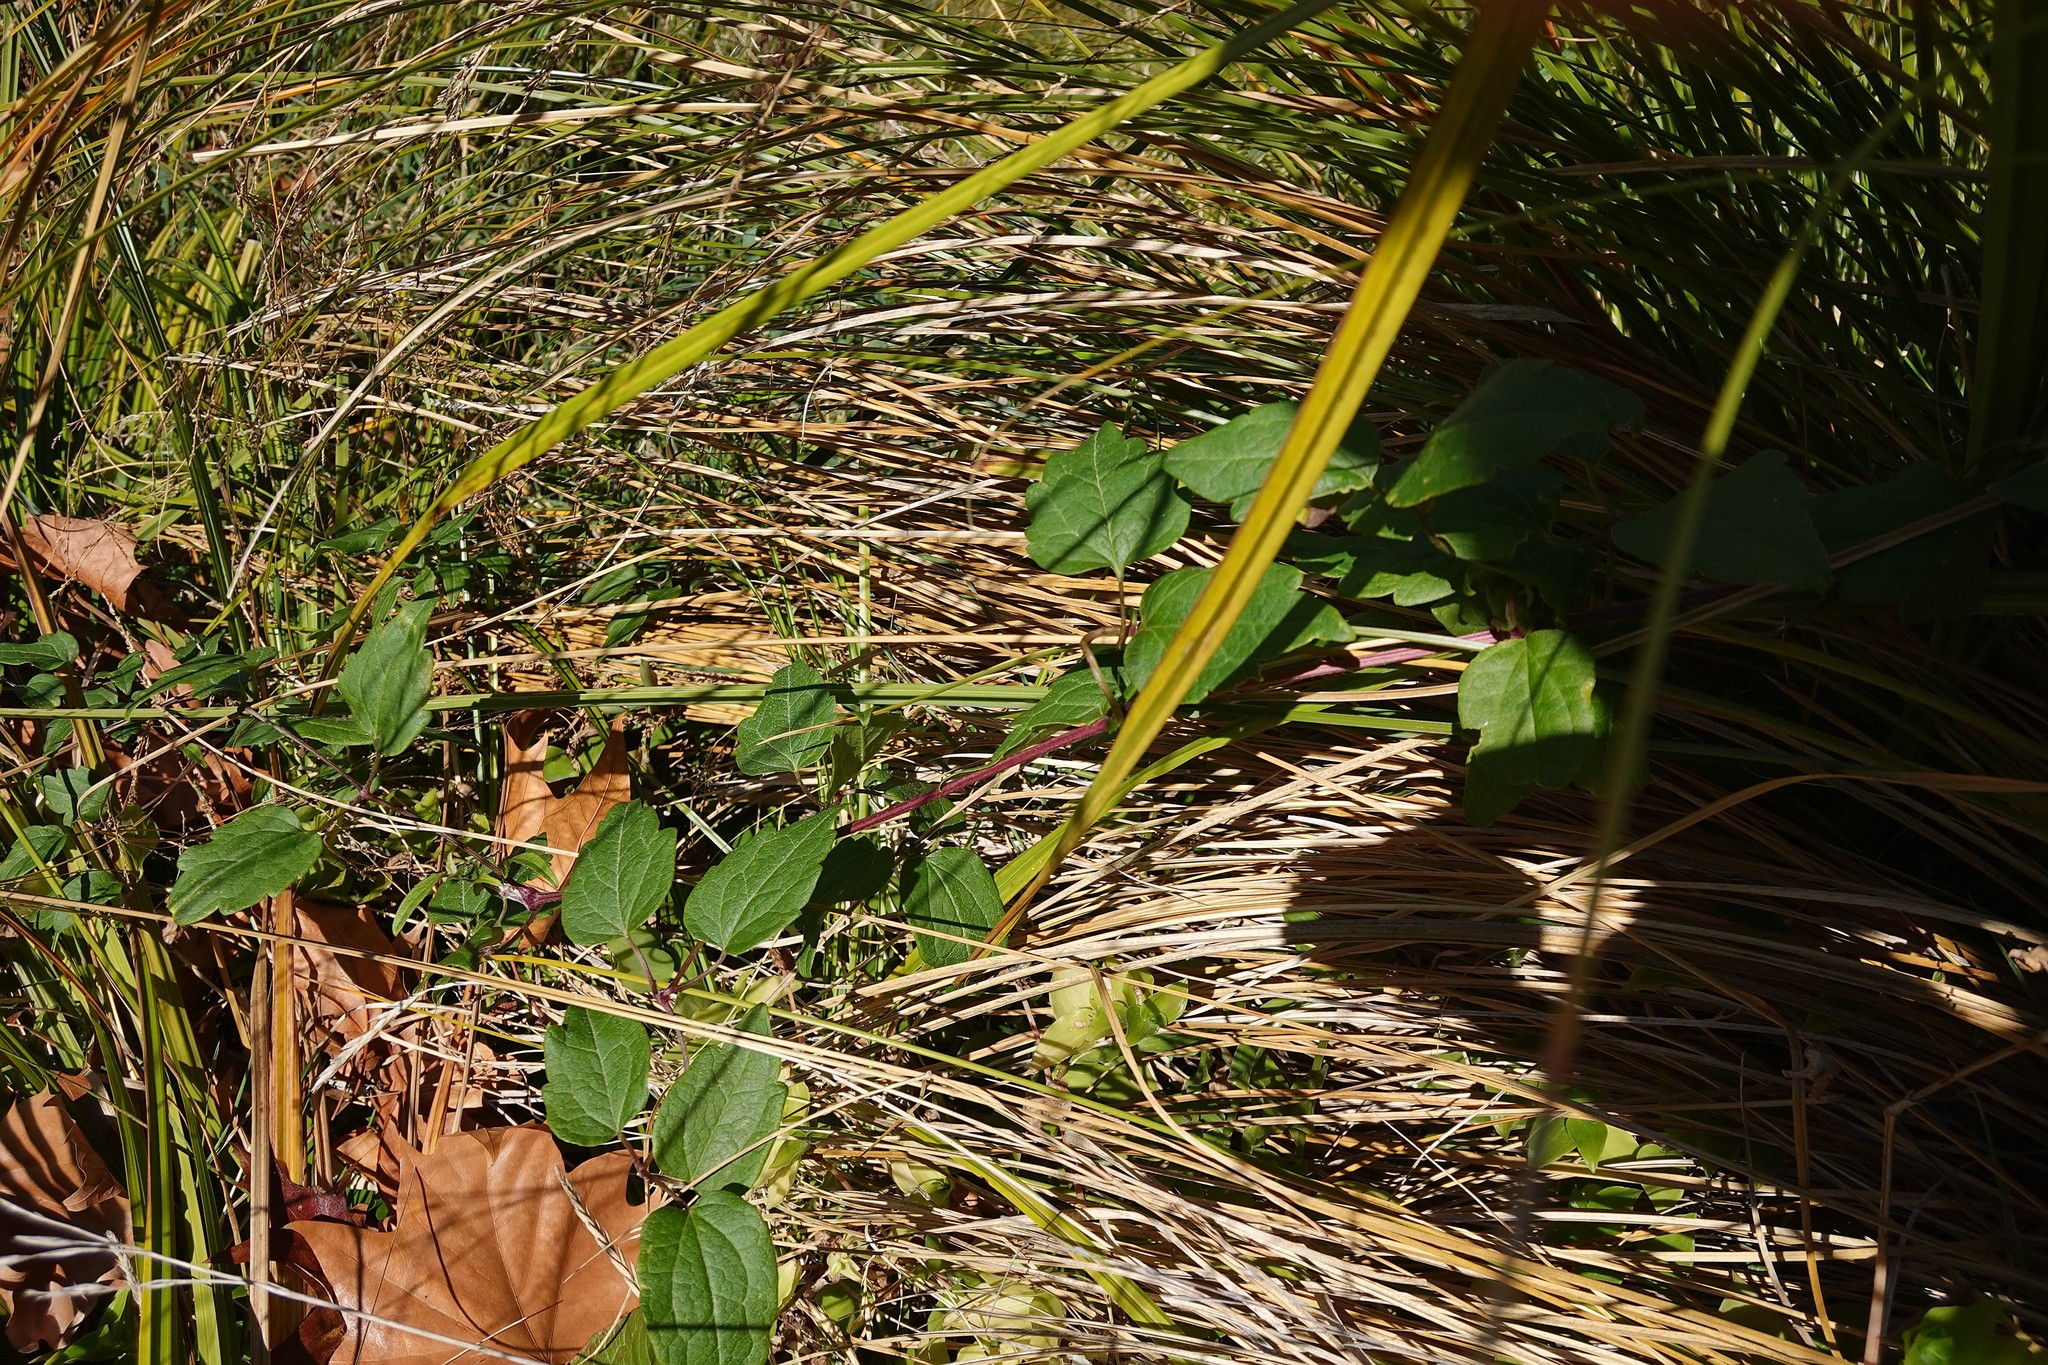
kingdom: Plantae
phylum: Tracheophyta
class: Magnoliopsida
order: Ranunculales
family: Ranunculaceae
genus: Clematis
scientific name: Clematis vitalba
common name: Evergreen clematis
